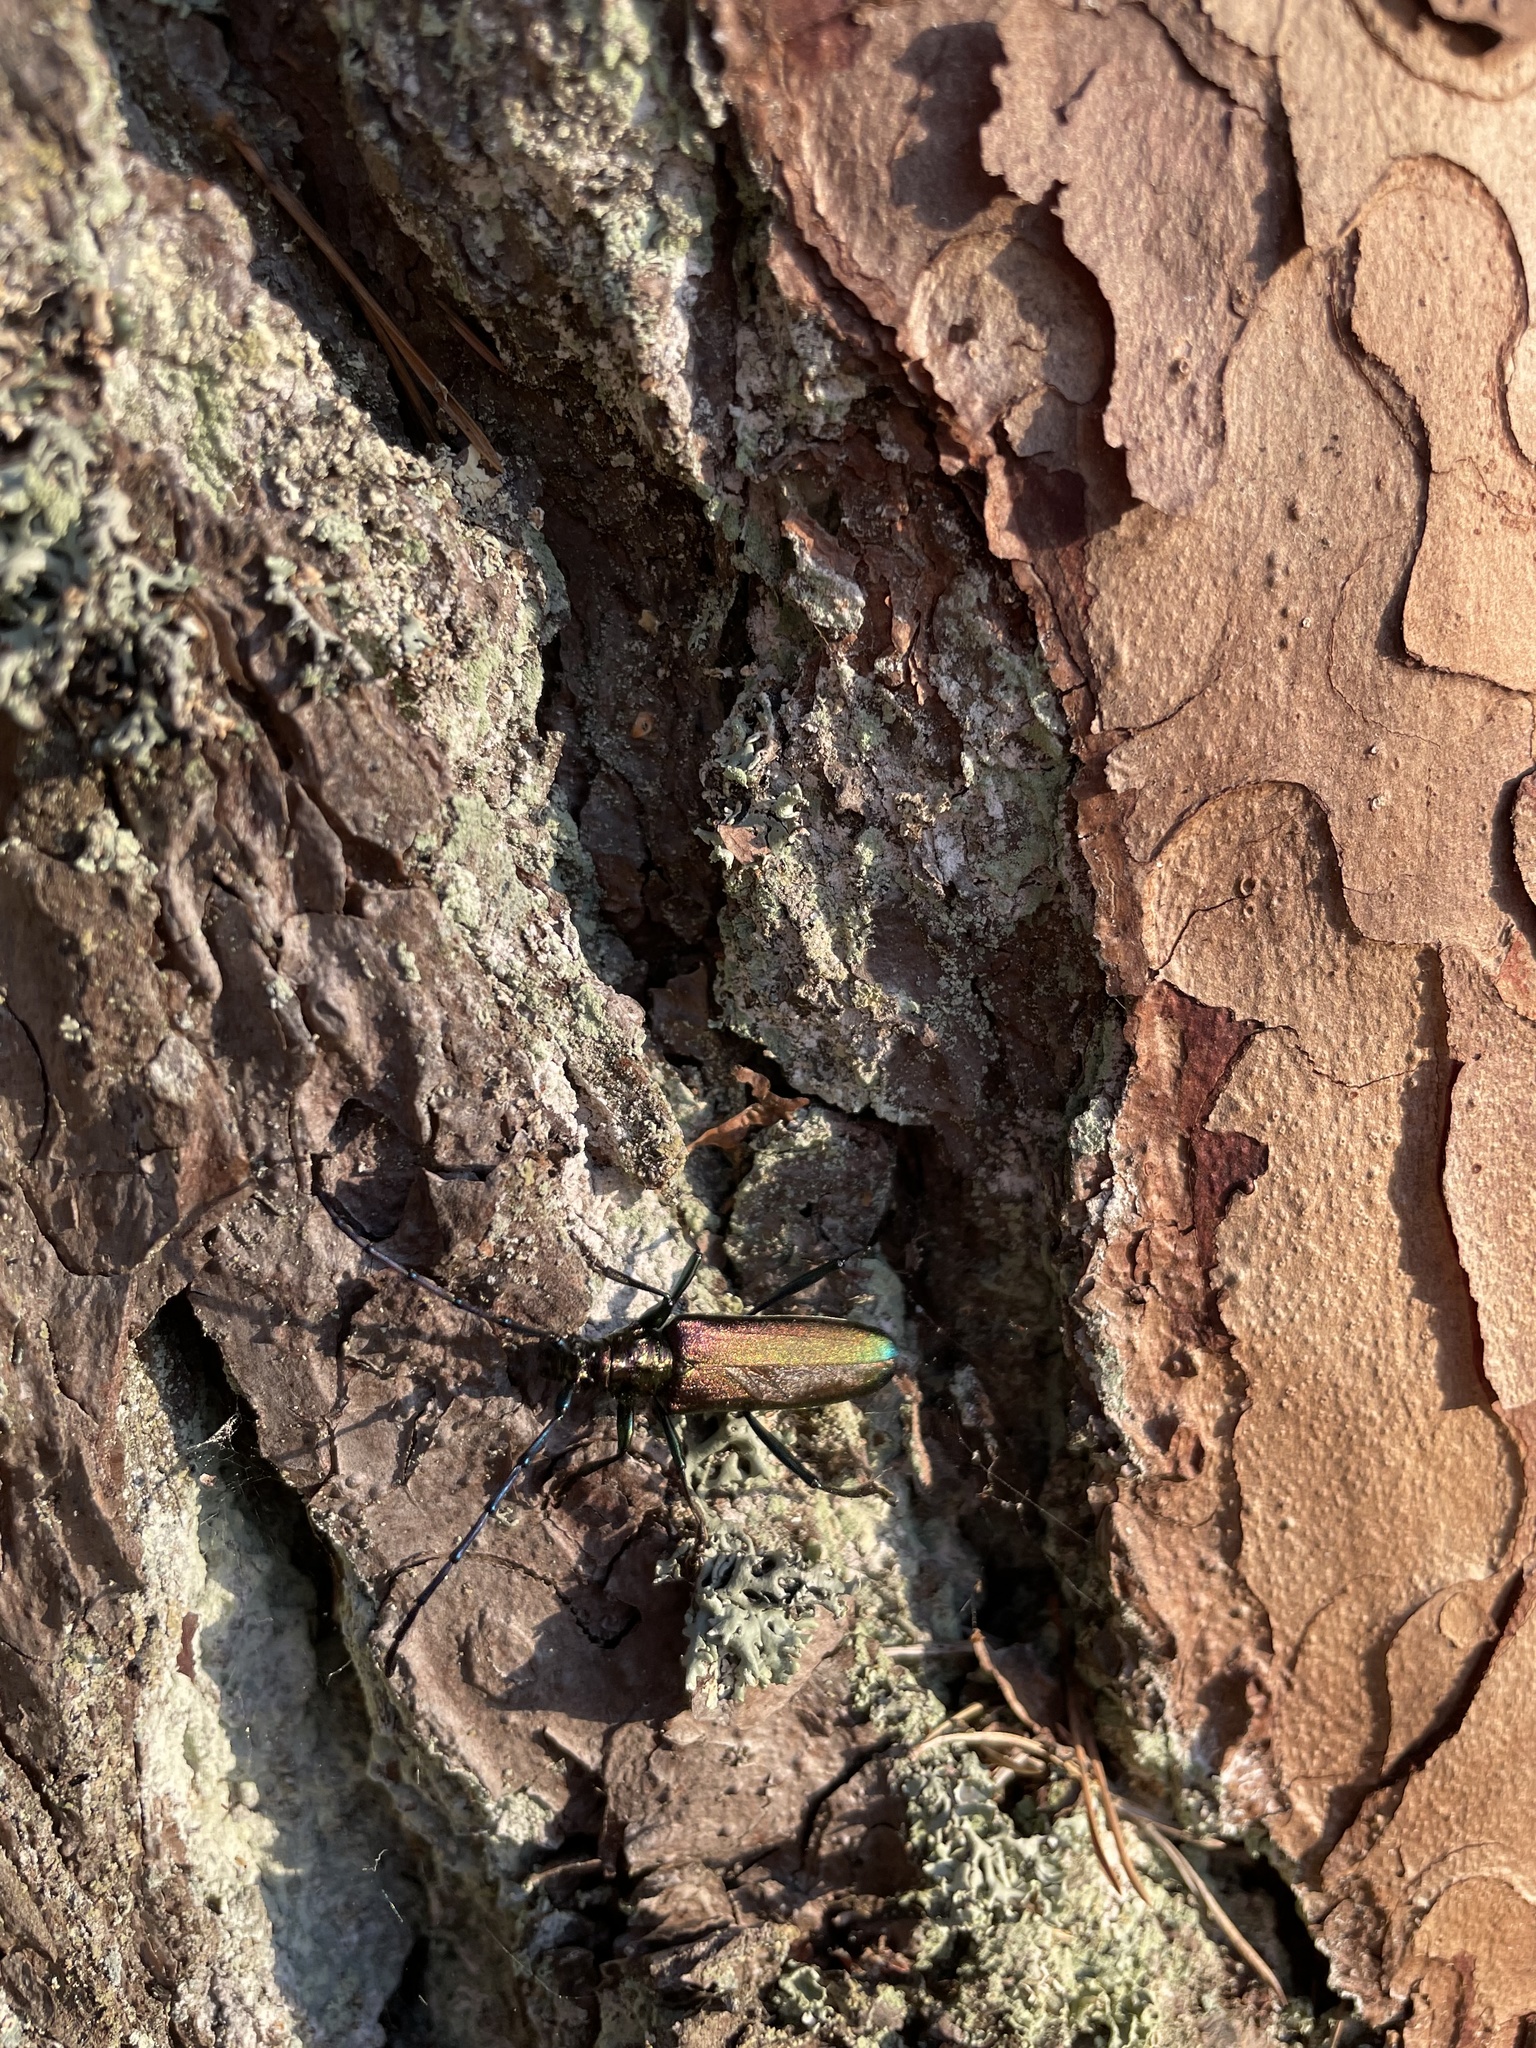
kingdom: Animalia
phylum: Arthropoda
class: Insecta
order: Coleoptera
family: Cerambycidae
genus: Aromia
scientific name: Aromia moschata
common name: Musk beetle
